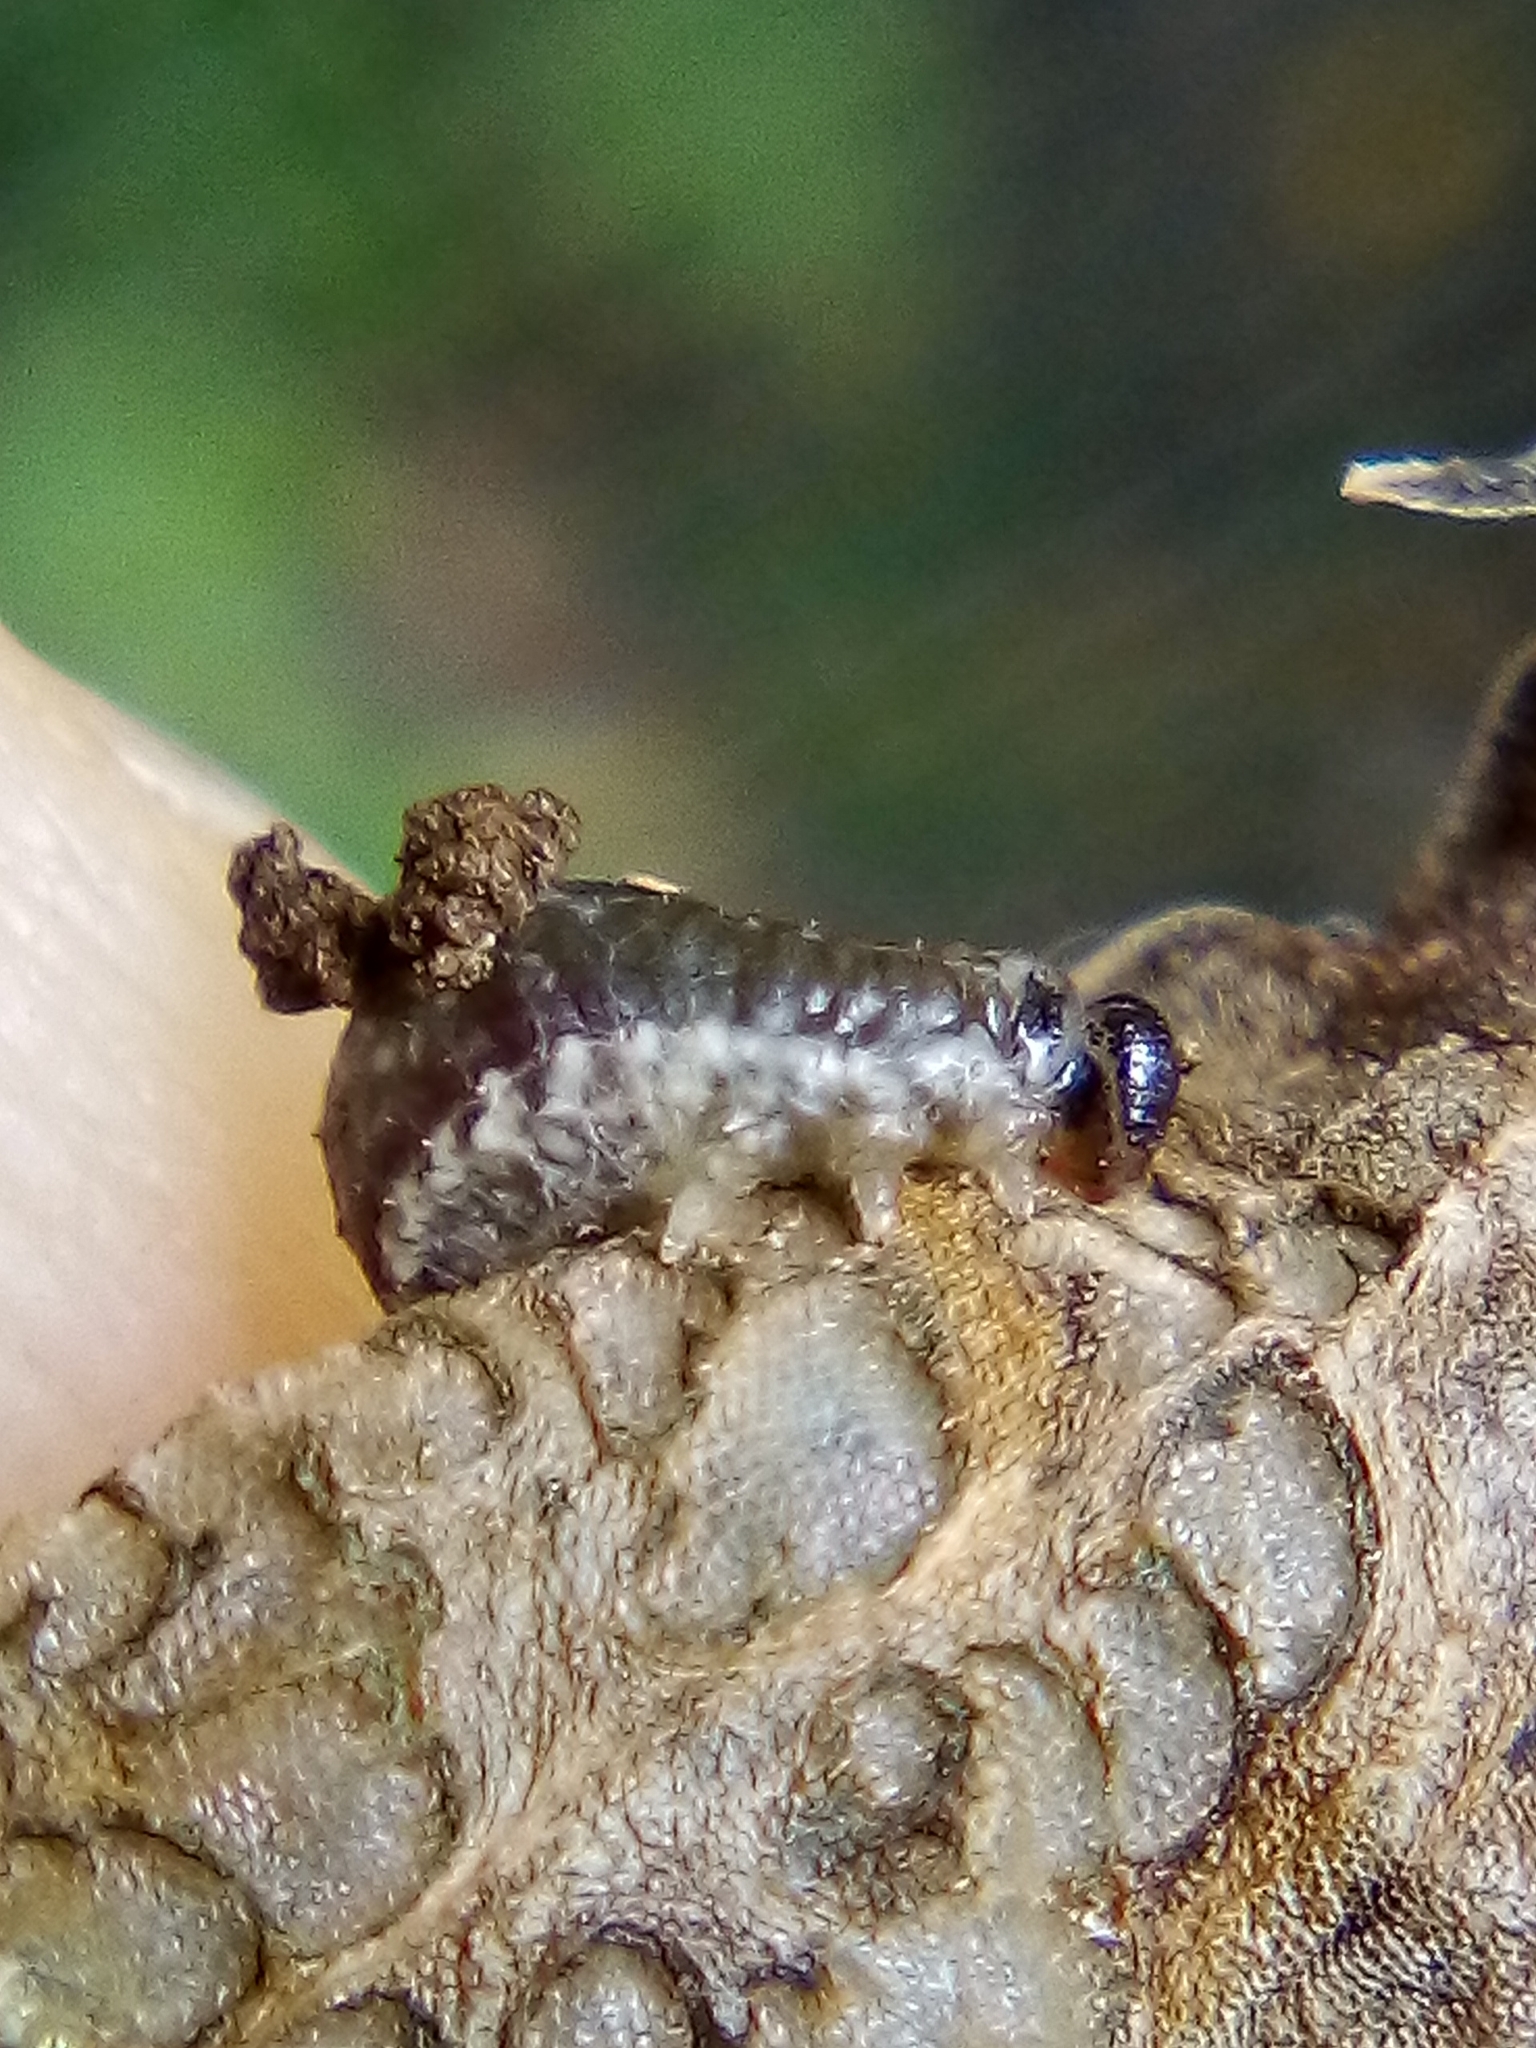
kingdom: Animalia
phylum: Arthropoda
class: Insecta
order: Coleoptera
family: Chrysomelidae
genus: Neolema
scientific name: Neolema ogloblini
